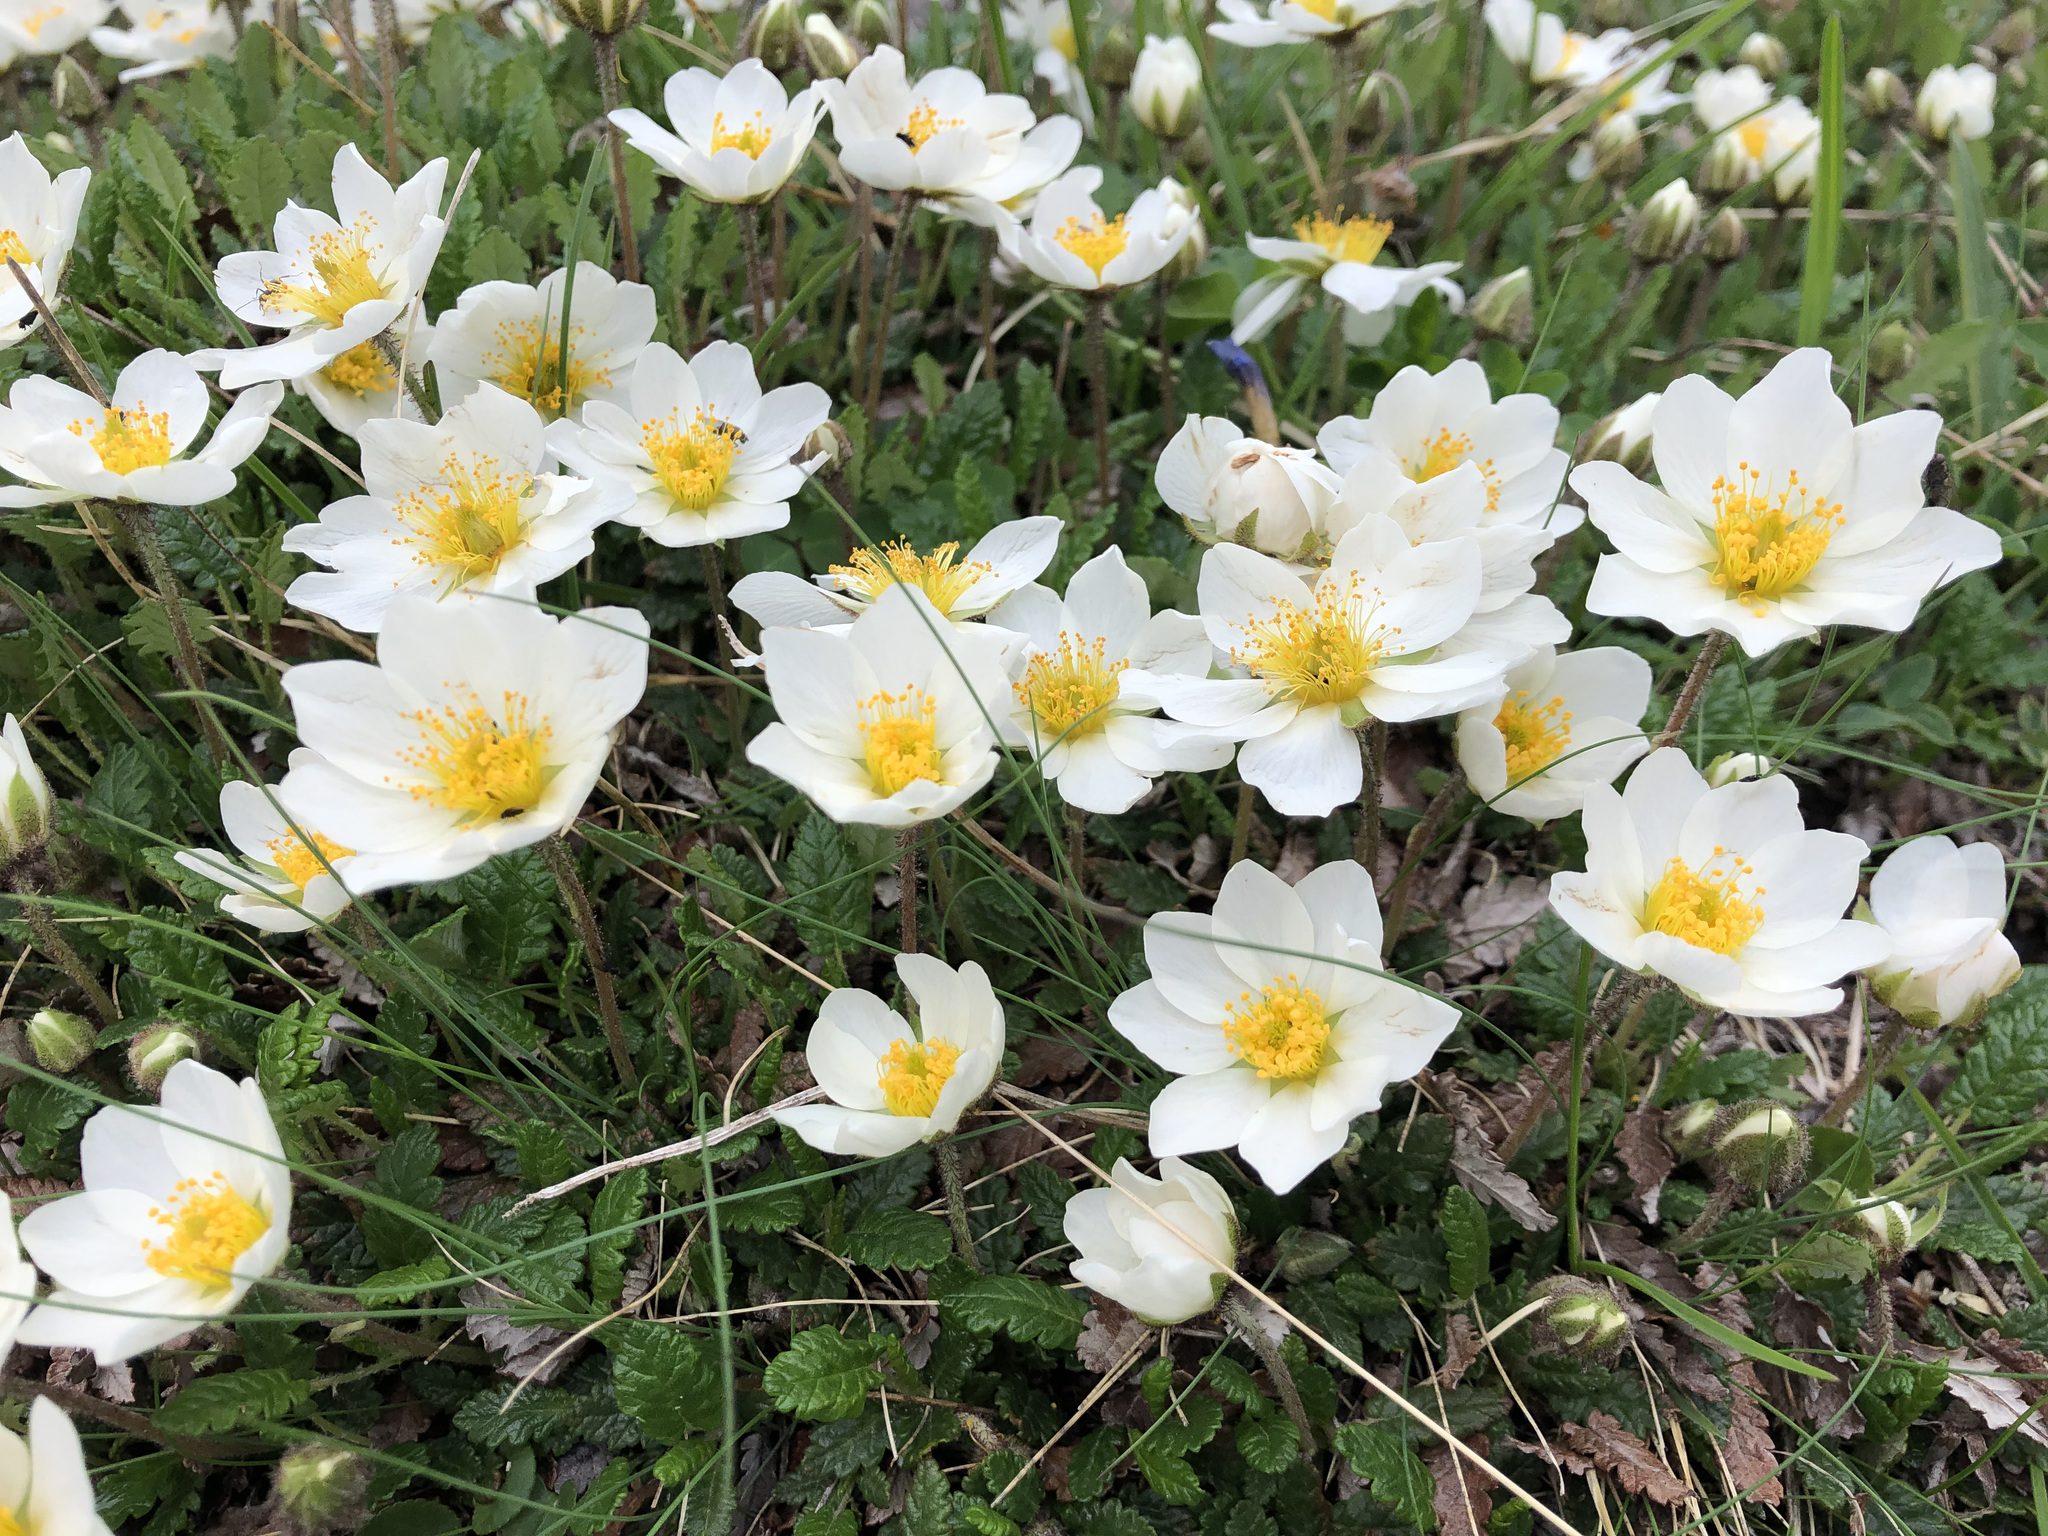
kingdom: Plantae
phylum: Tracheophyta
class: Magnoliopsida
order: Rosales
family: Rosaceae
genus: Dryas
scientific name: Dryas octopetala
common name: Eight-petal mountain-avens
